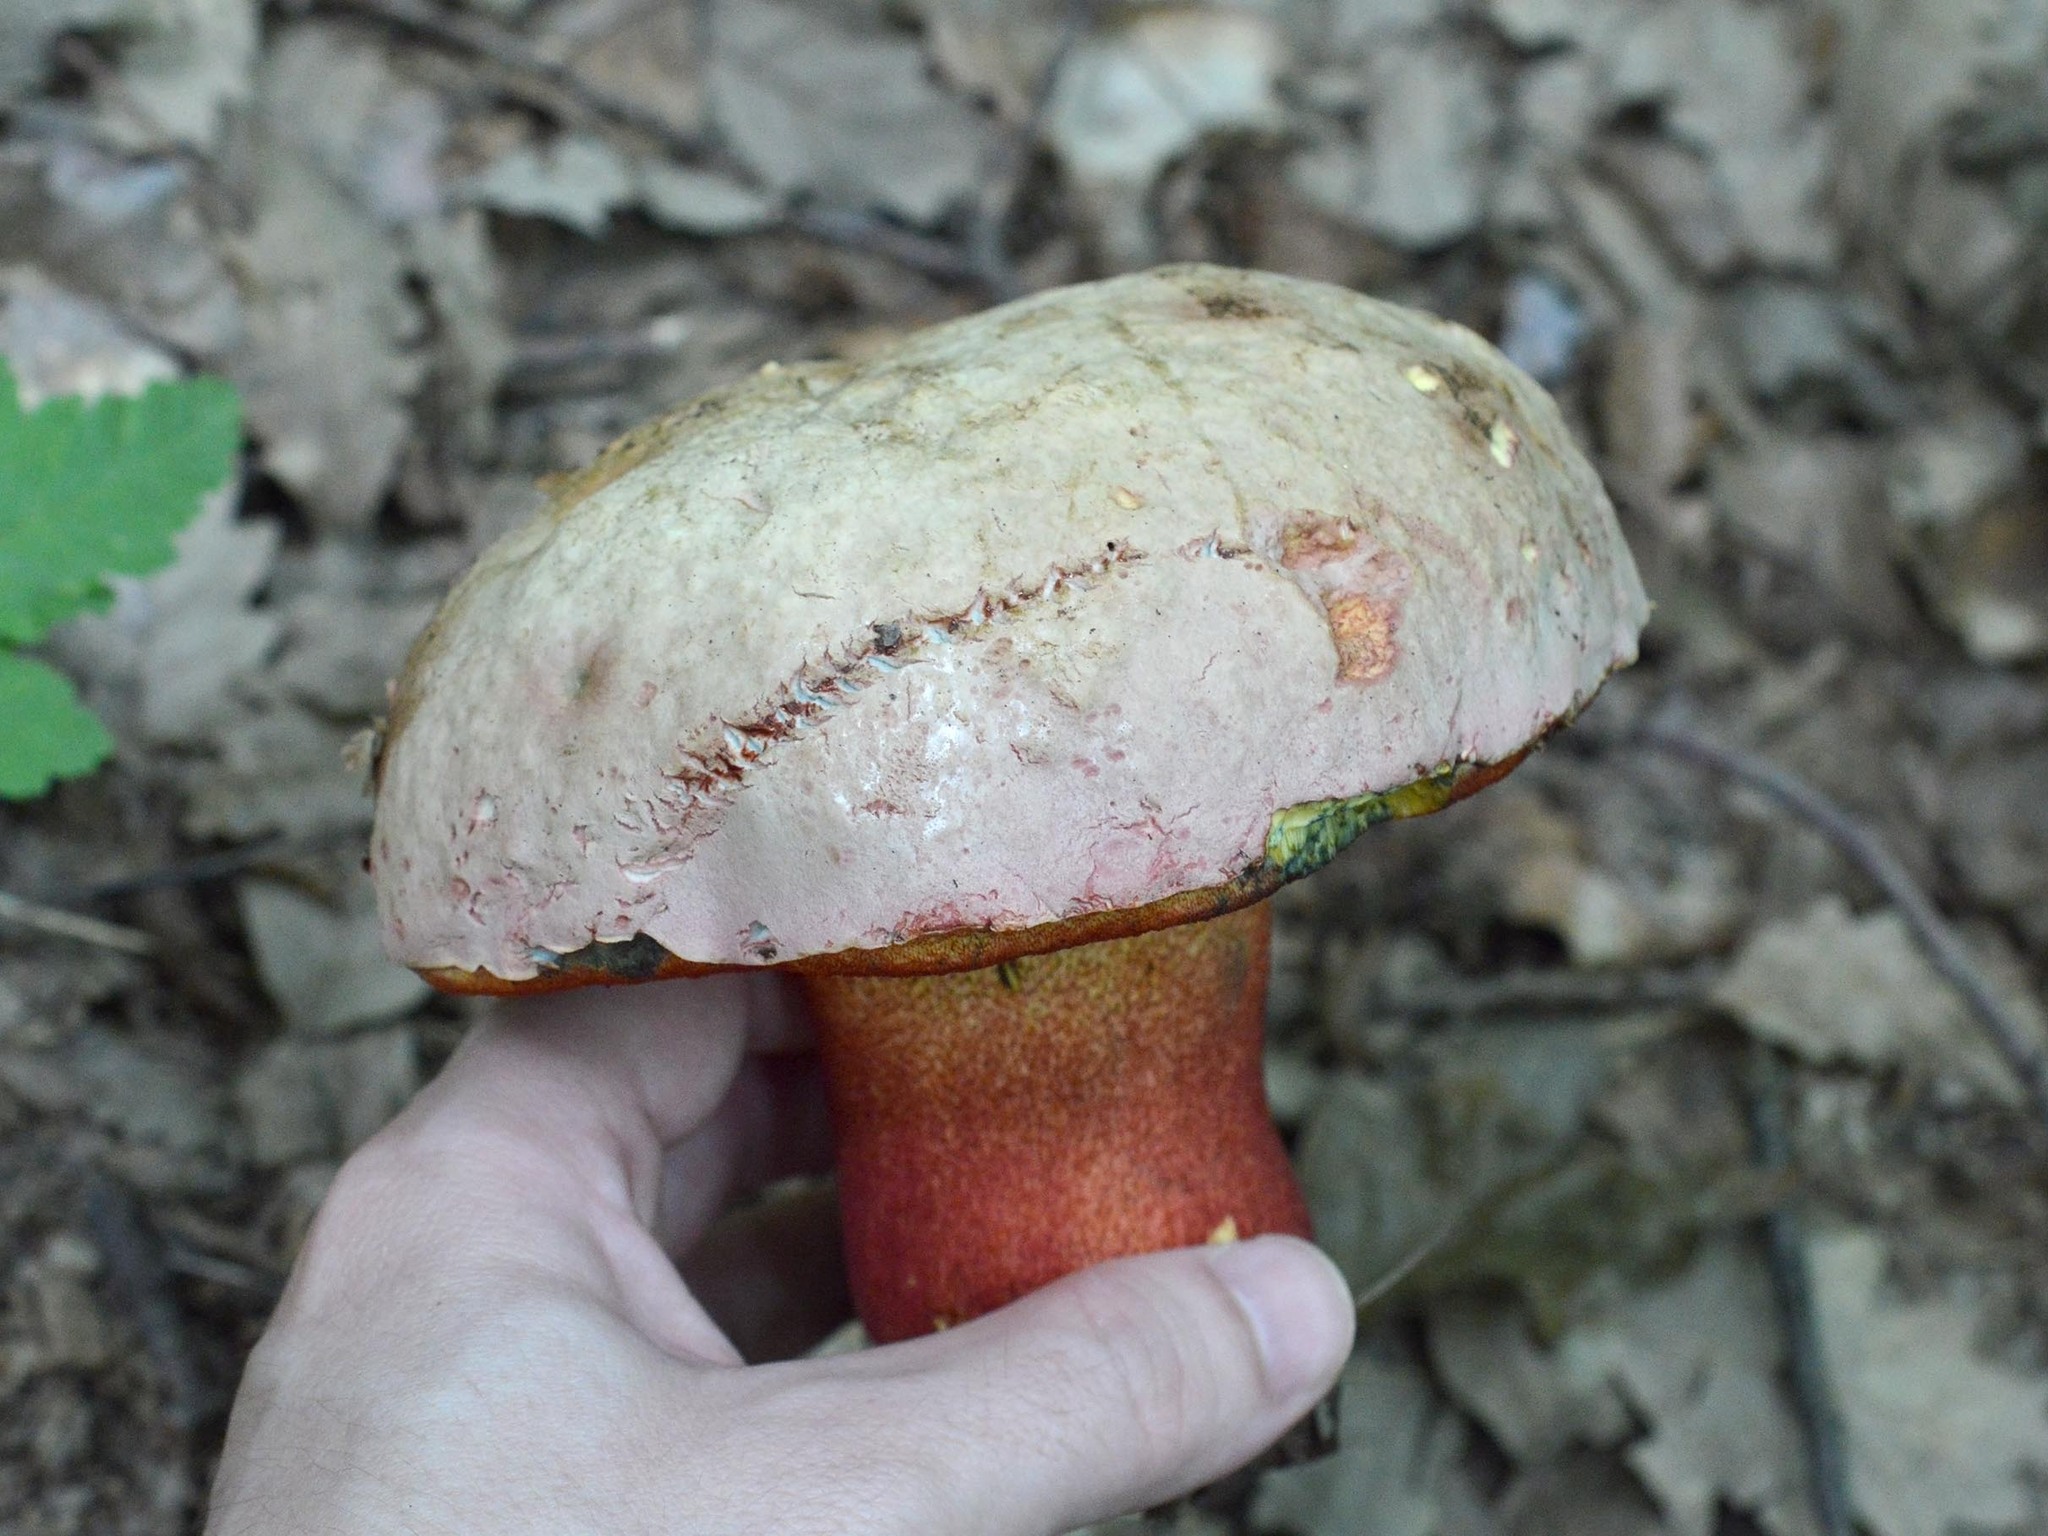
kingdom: Fungi
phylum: Basidiomycota
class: Agaricomycetes
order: Boletales
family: Boletaceae
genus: Rubroboletus
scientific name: Rubroboletus rhodoxanthus
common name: Ruddy bolete
